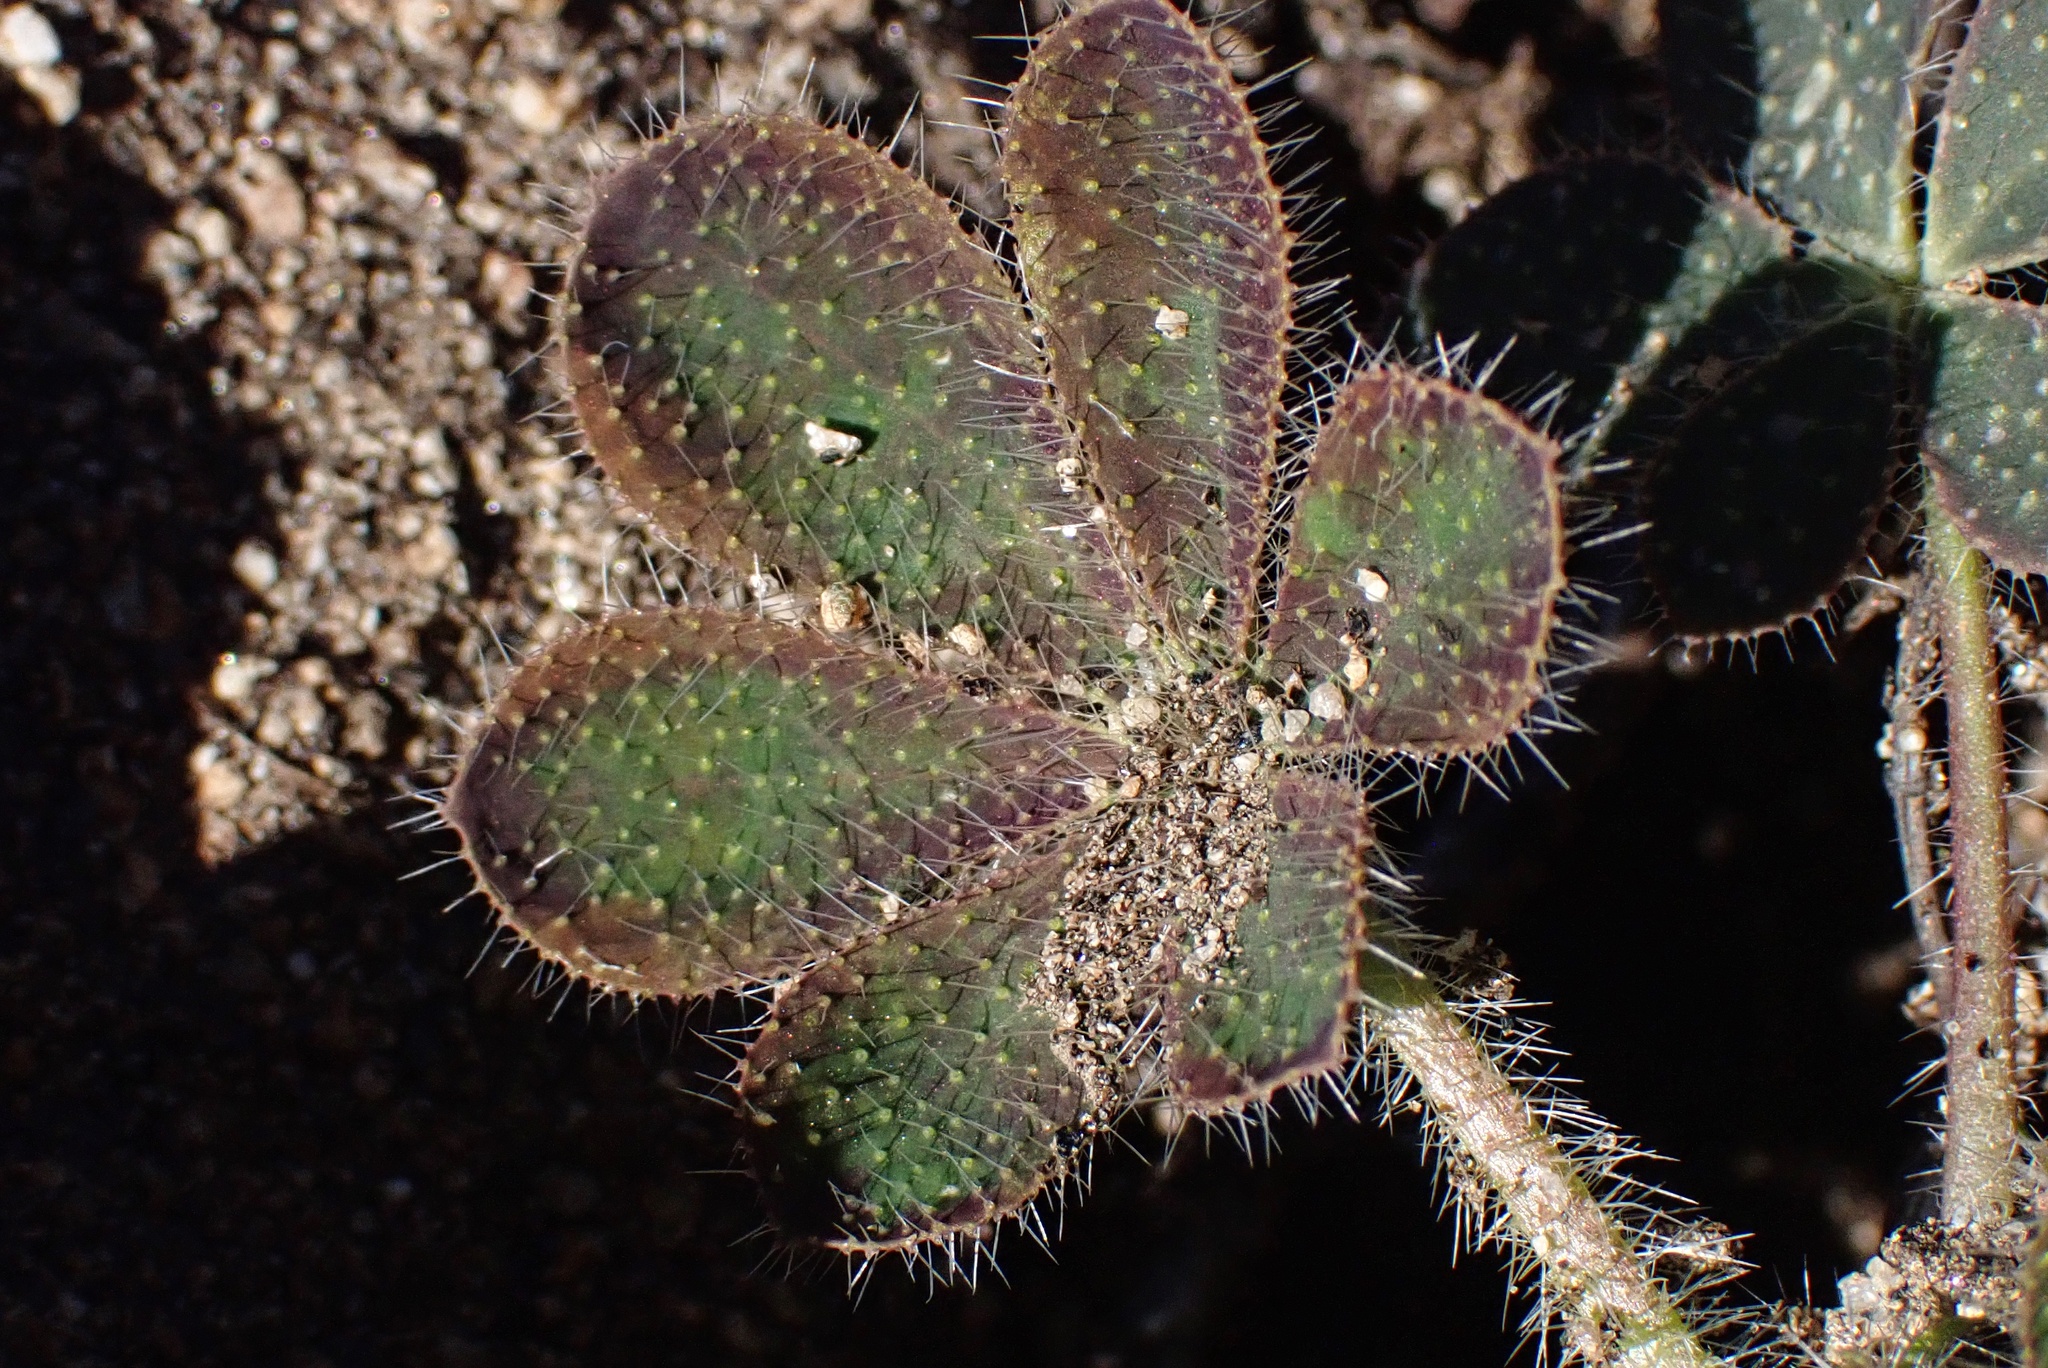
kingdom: Plantae
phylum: Tracheophyta
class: Magnoliopsida
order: Fabales
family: Fabaceae
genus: Lupinus
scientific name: Lupinus hirsutissimus
